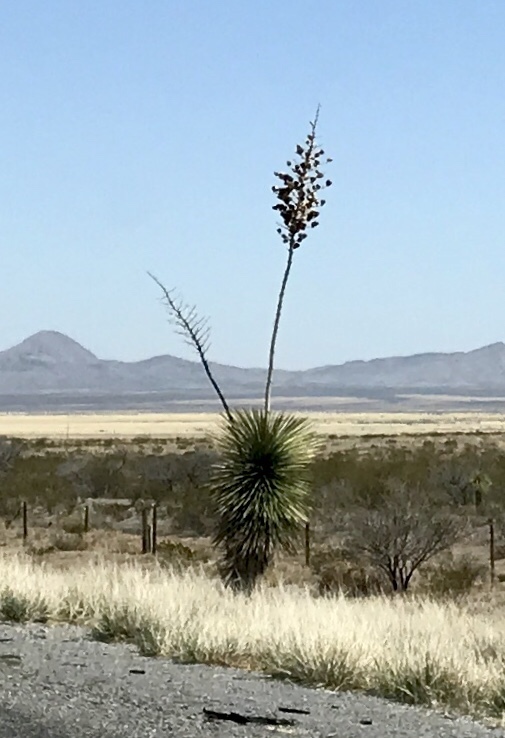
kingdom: Plantae
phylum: Tracheophyta
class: Liliopsida
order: Asparagales
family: Asparagaceae
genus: Yucca
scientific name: Yucca elata
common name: Palmella
